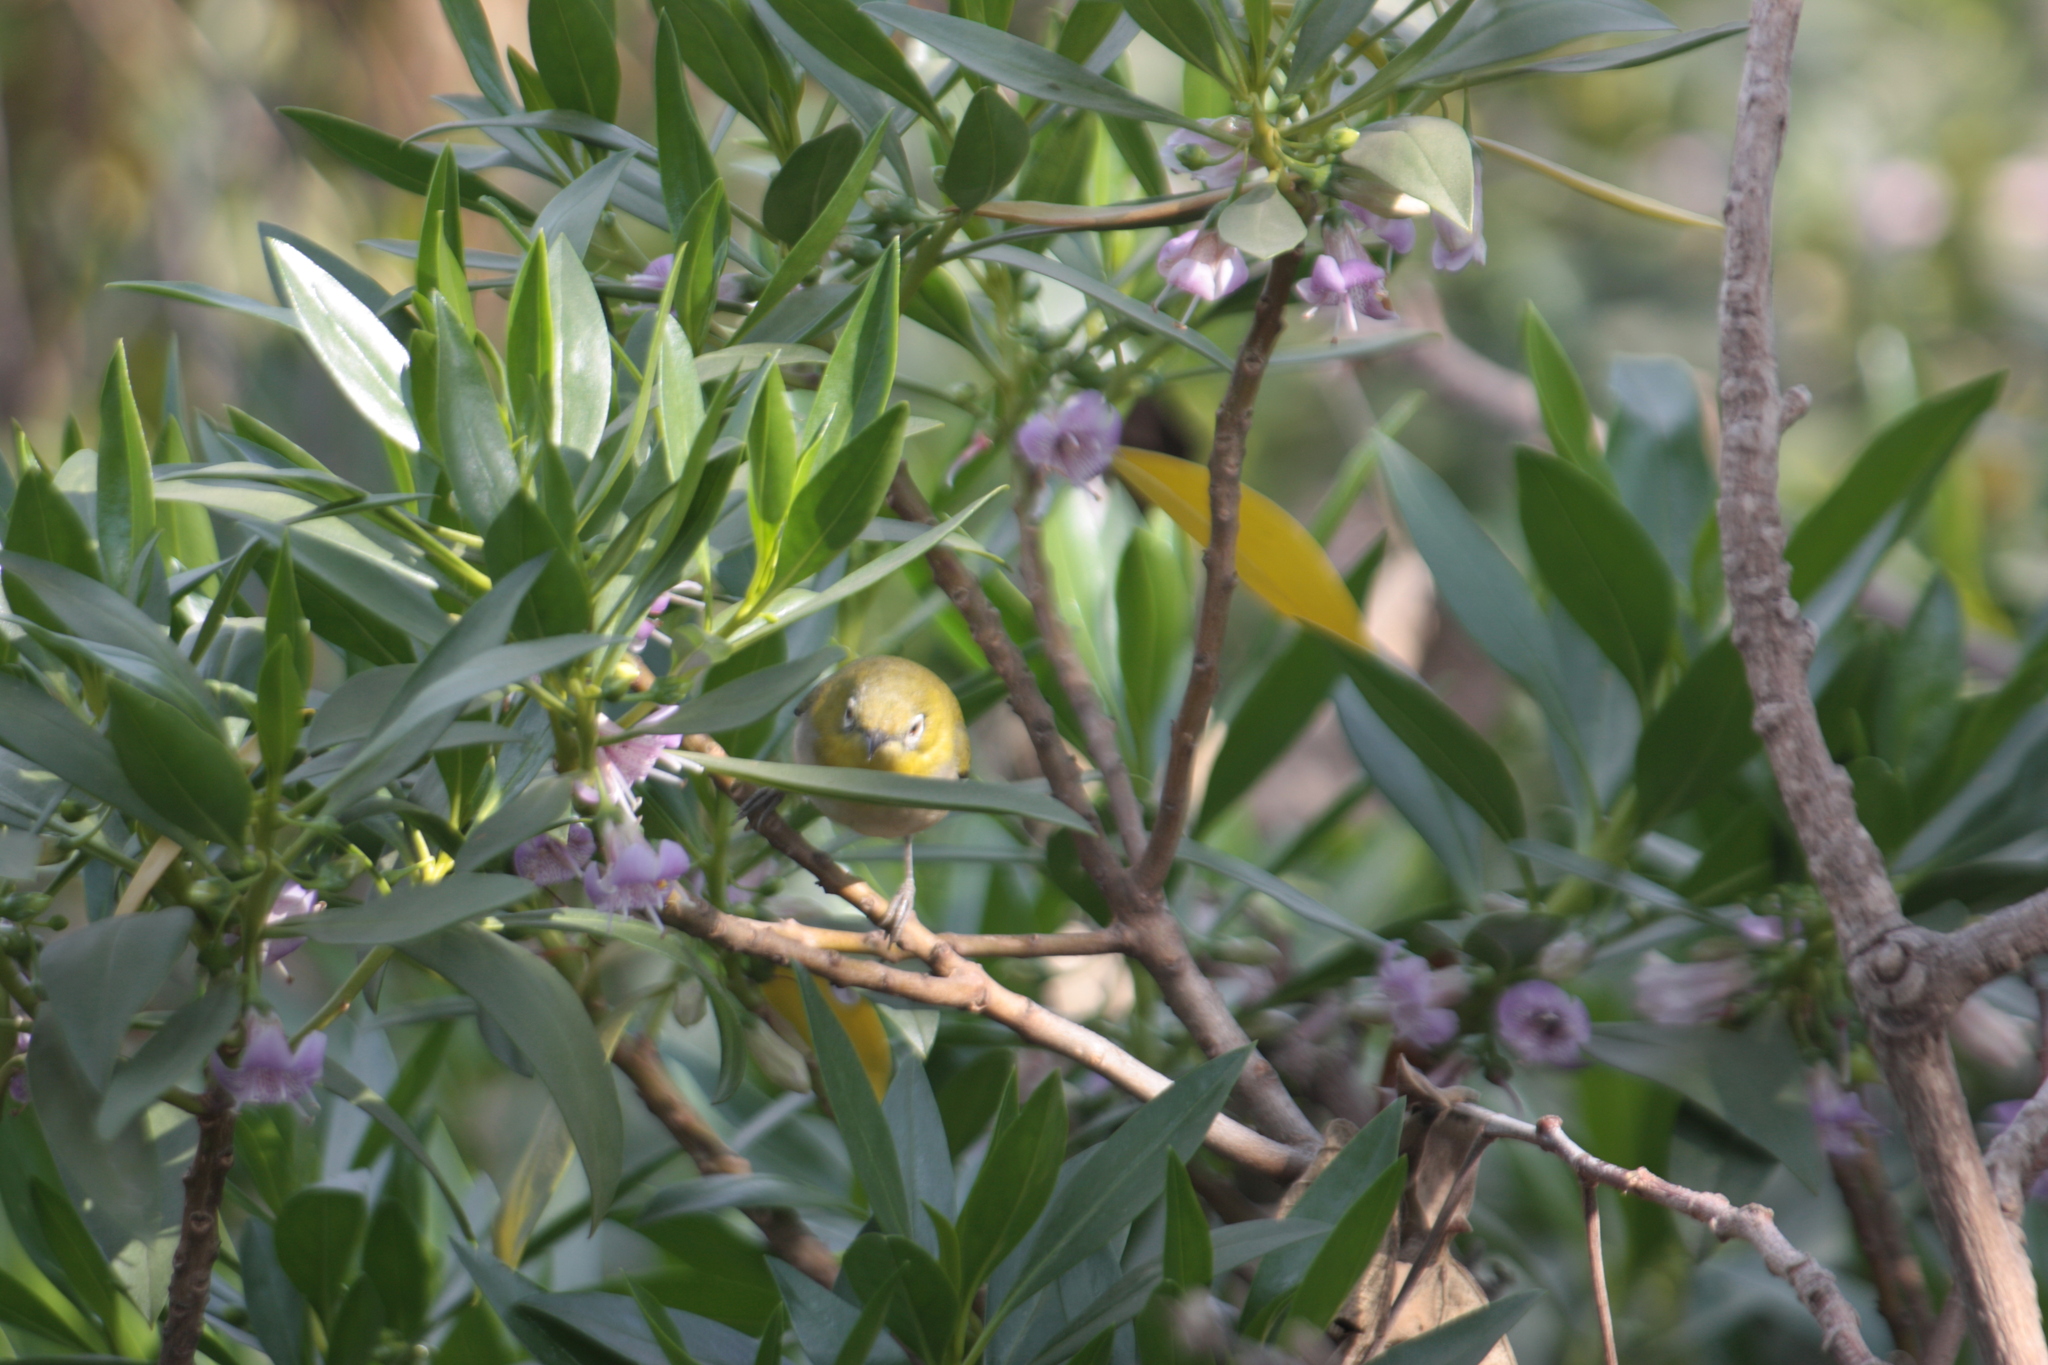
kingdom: Animalia
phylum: Chordata
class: Aves
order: Passeriformes
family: Zosteropidae
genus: Zosterops
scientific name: Zosterops simplex
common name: Swinhoe's white-eye
